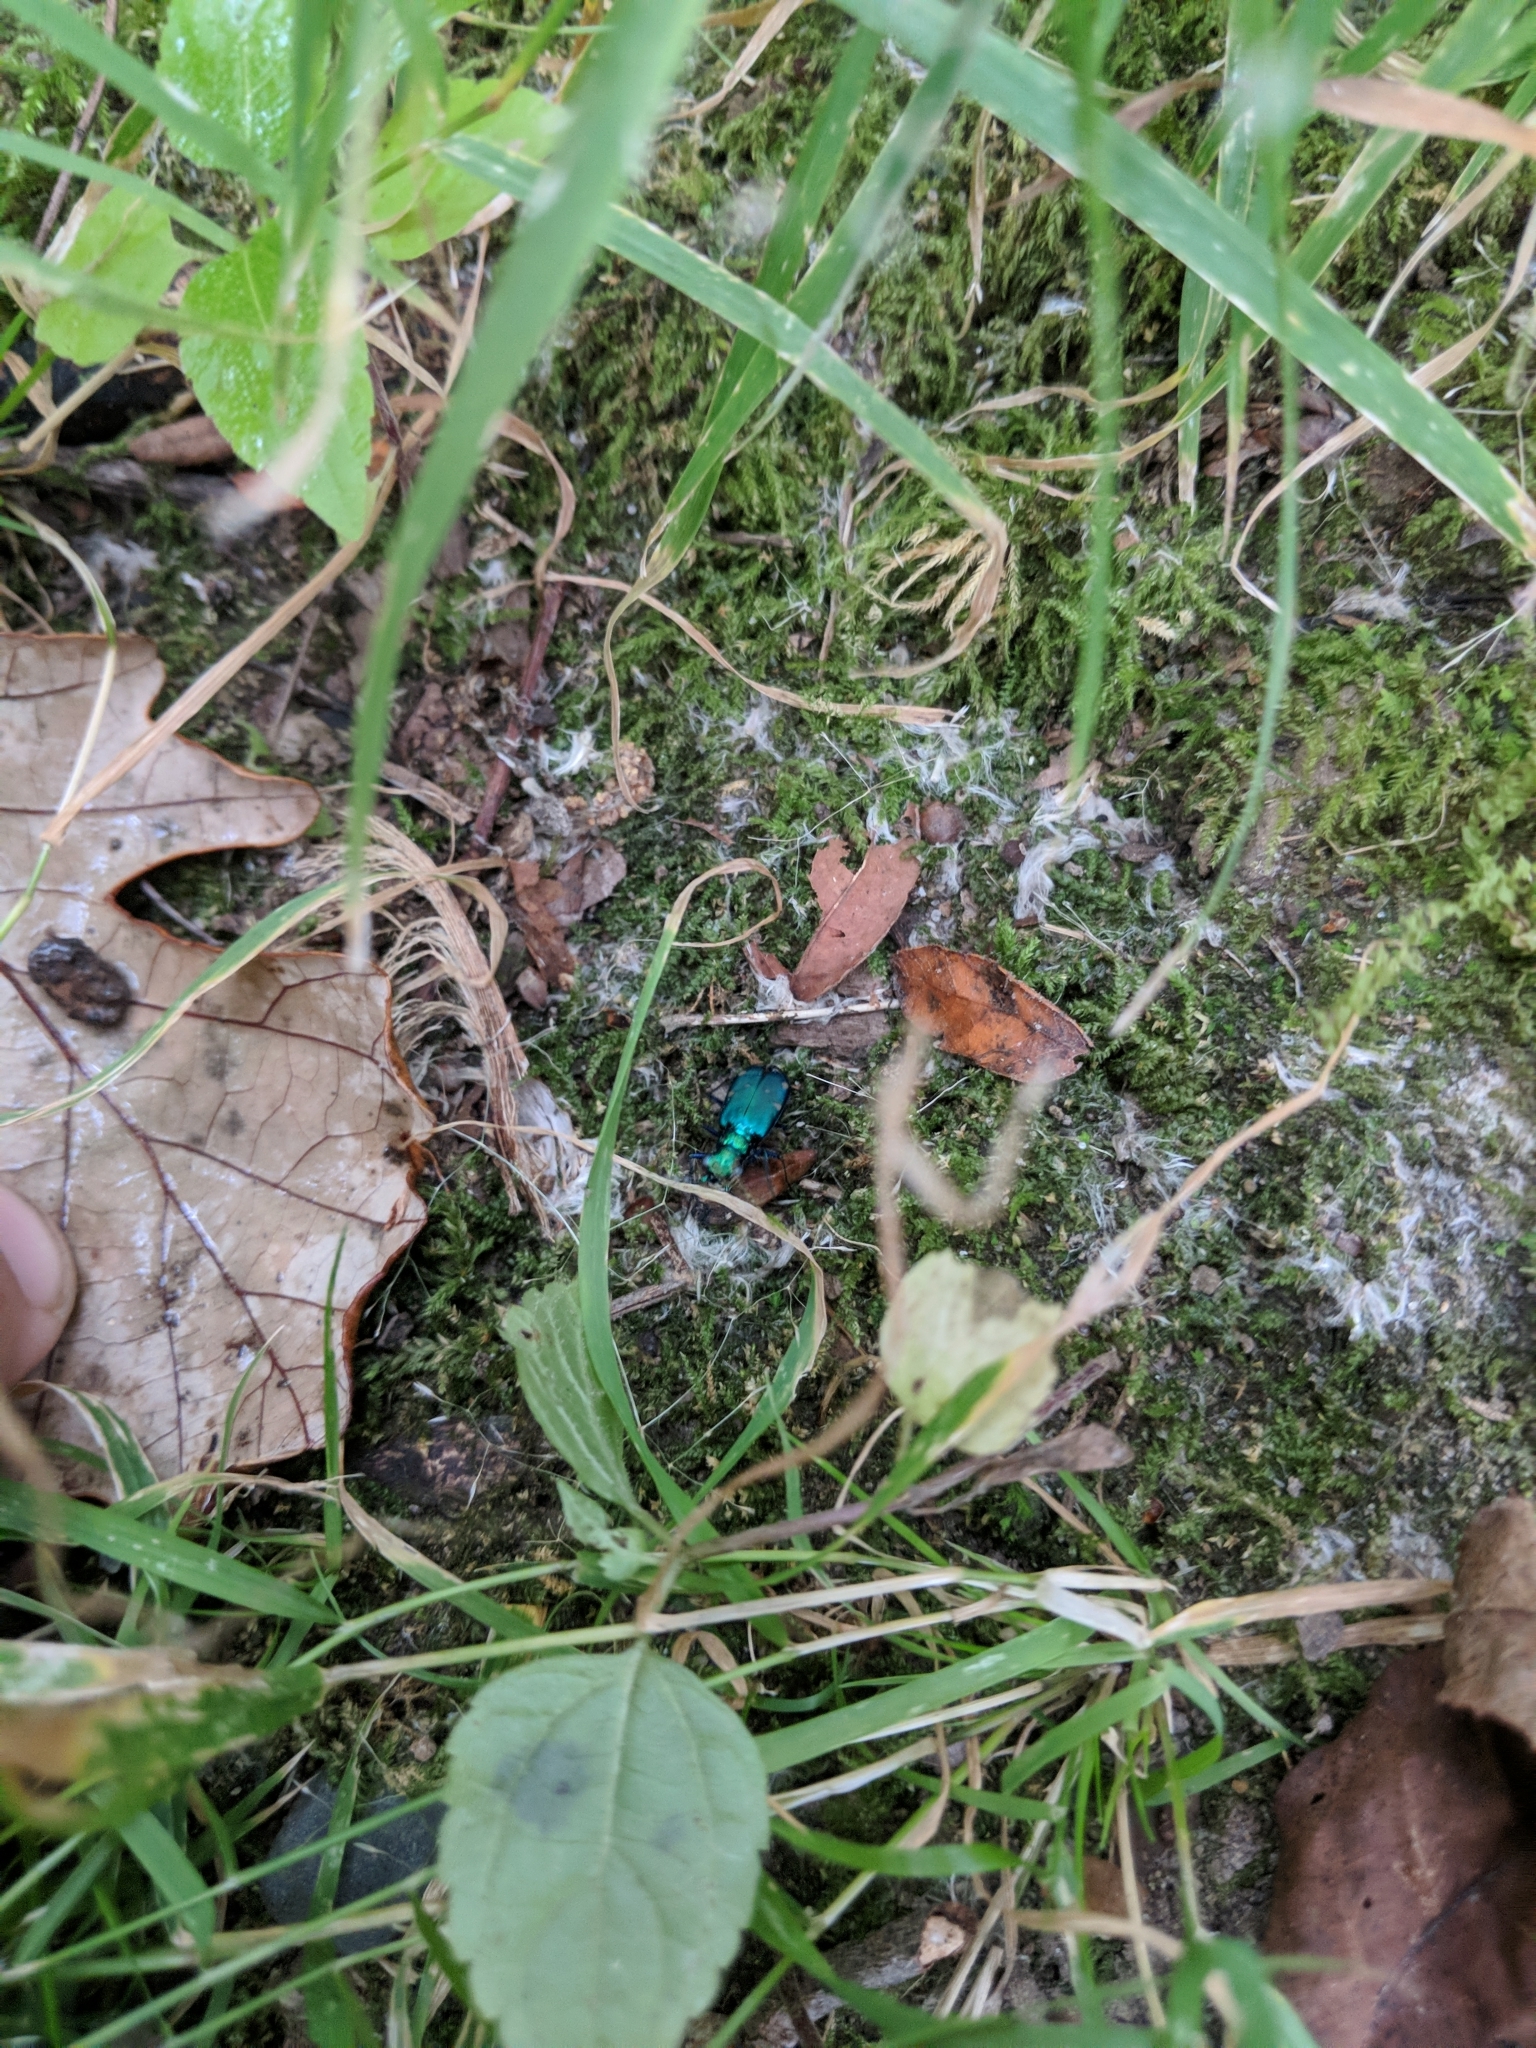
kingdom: Animalia
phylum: Arthropoda
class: Insecta
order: Coleoptera
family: Carabidae
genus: Cicindela
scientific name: Cicindela sexguttata
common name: Six-spotted tiger beetle
